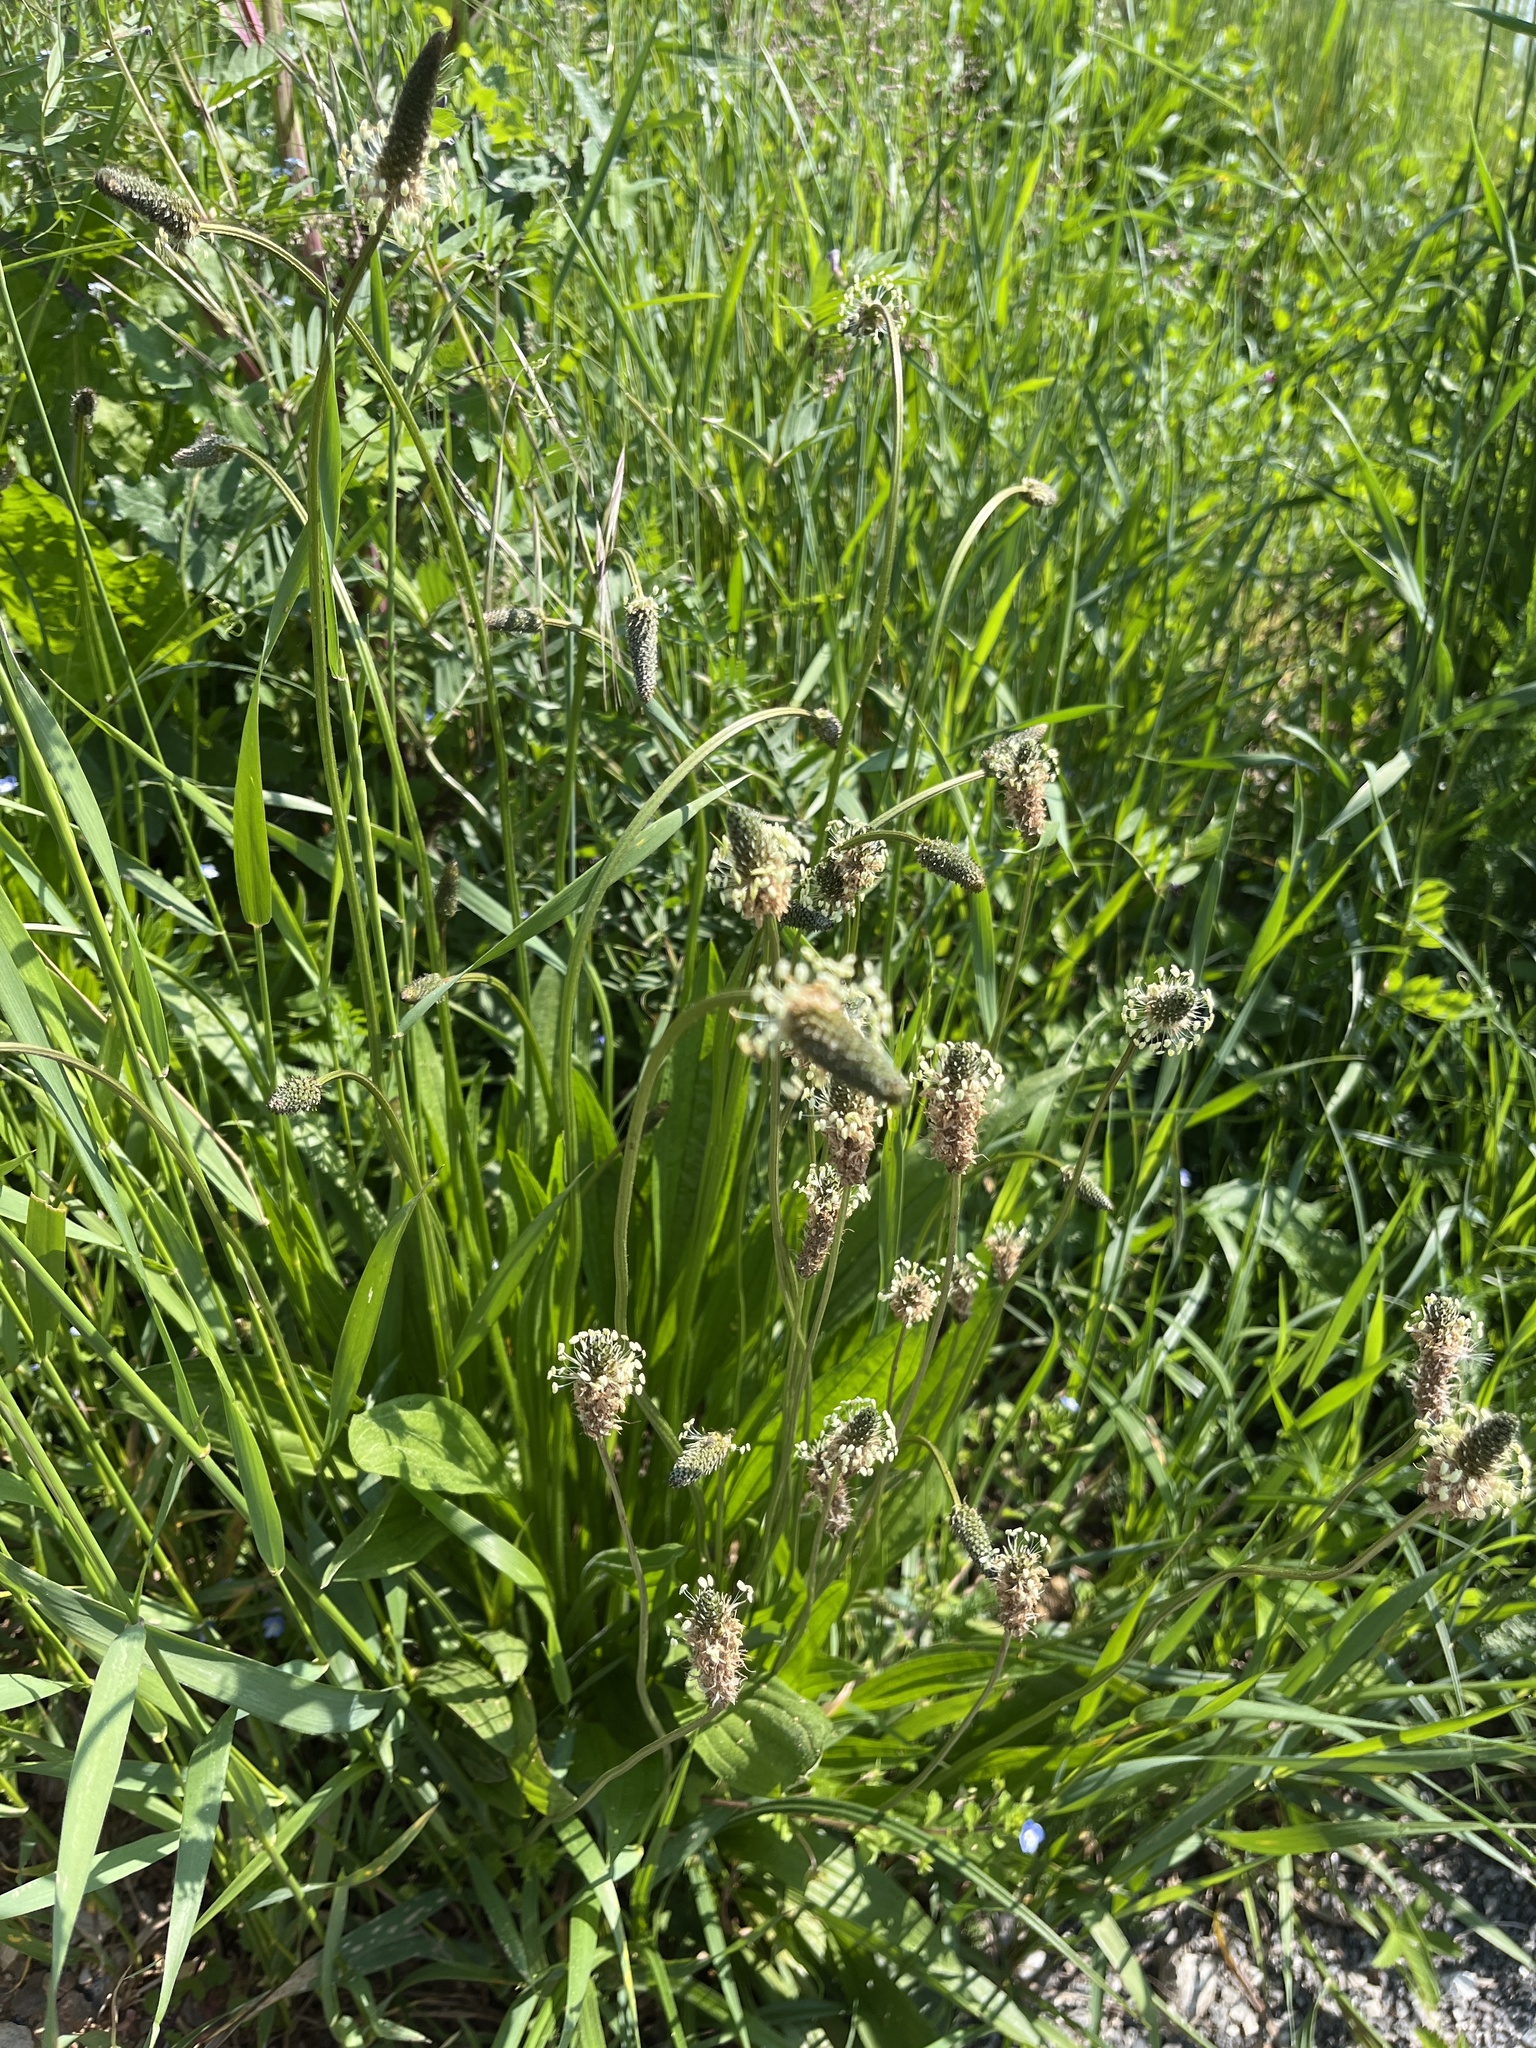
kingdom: Plantae
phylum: Tracheophyta
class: Magnoliopsida
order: Lamiales
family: Plantaginaceae
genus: Plantago
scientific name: Plantago lanceolata
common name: Ribwort plantain
